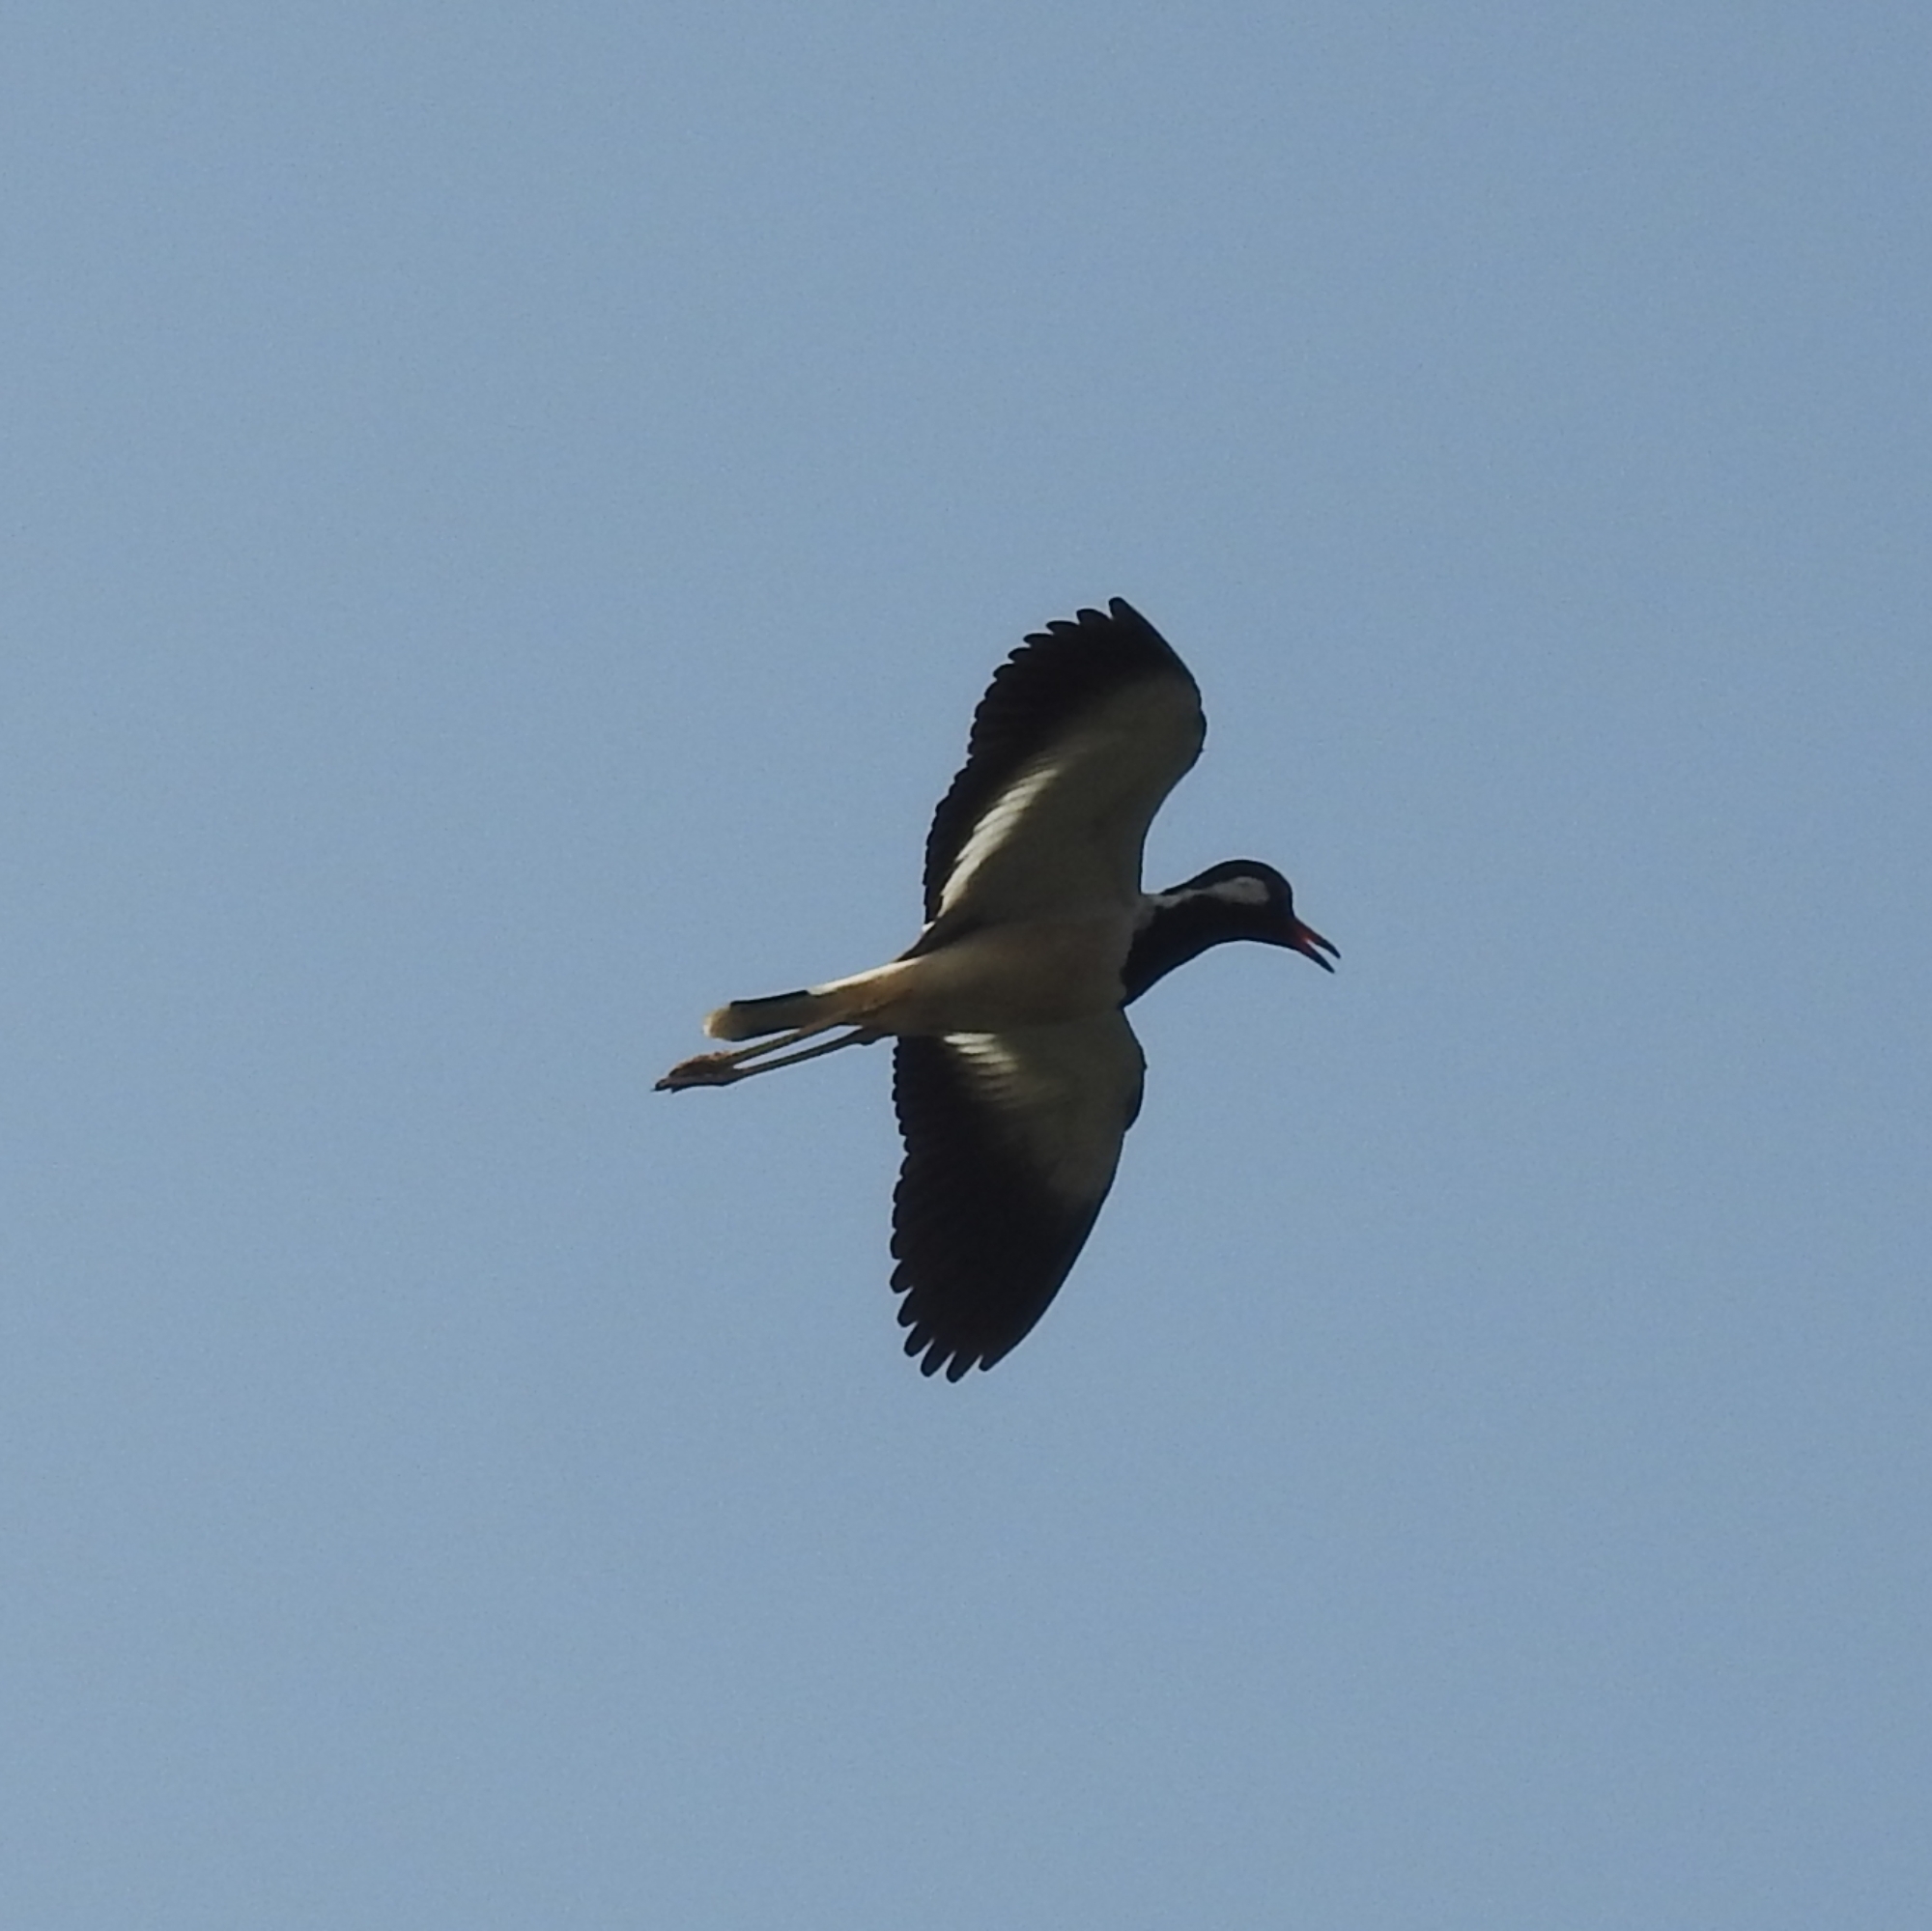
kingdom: Animalia
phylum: Chordata
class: Aves
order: Charadriiformes
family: Charadriidae
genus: Vanellus
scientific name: Vanellus indicus
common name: Red-wattled lapwing
